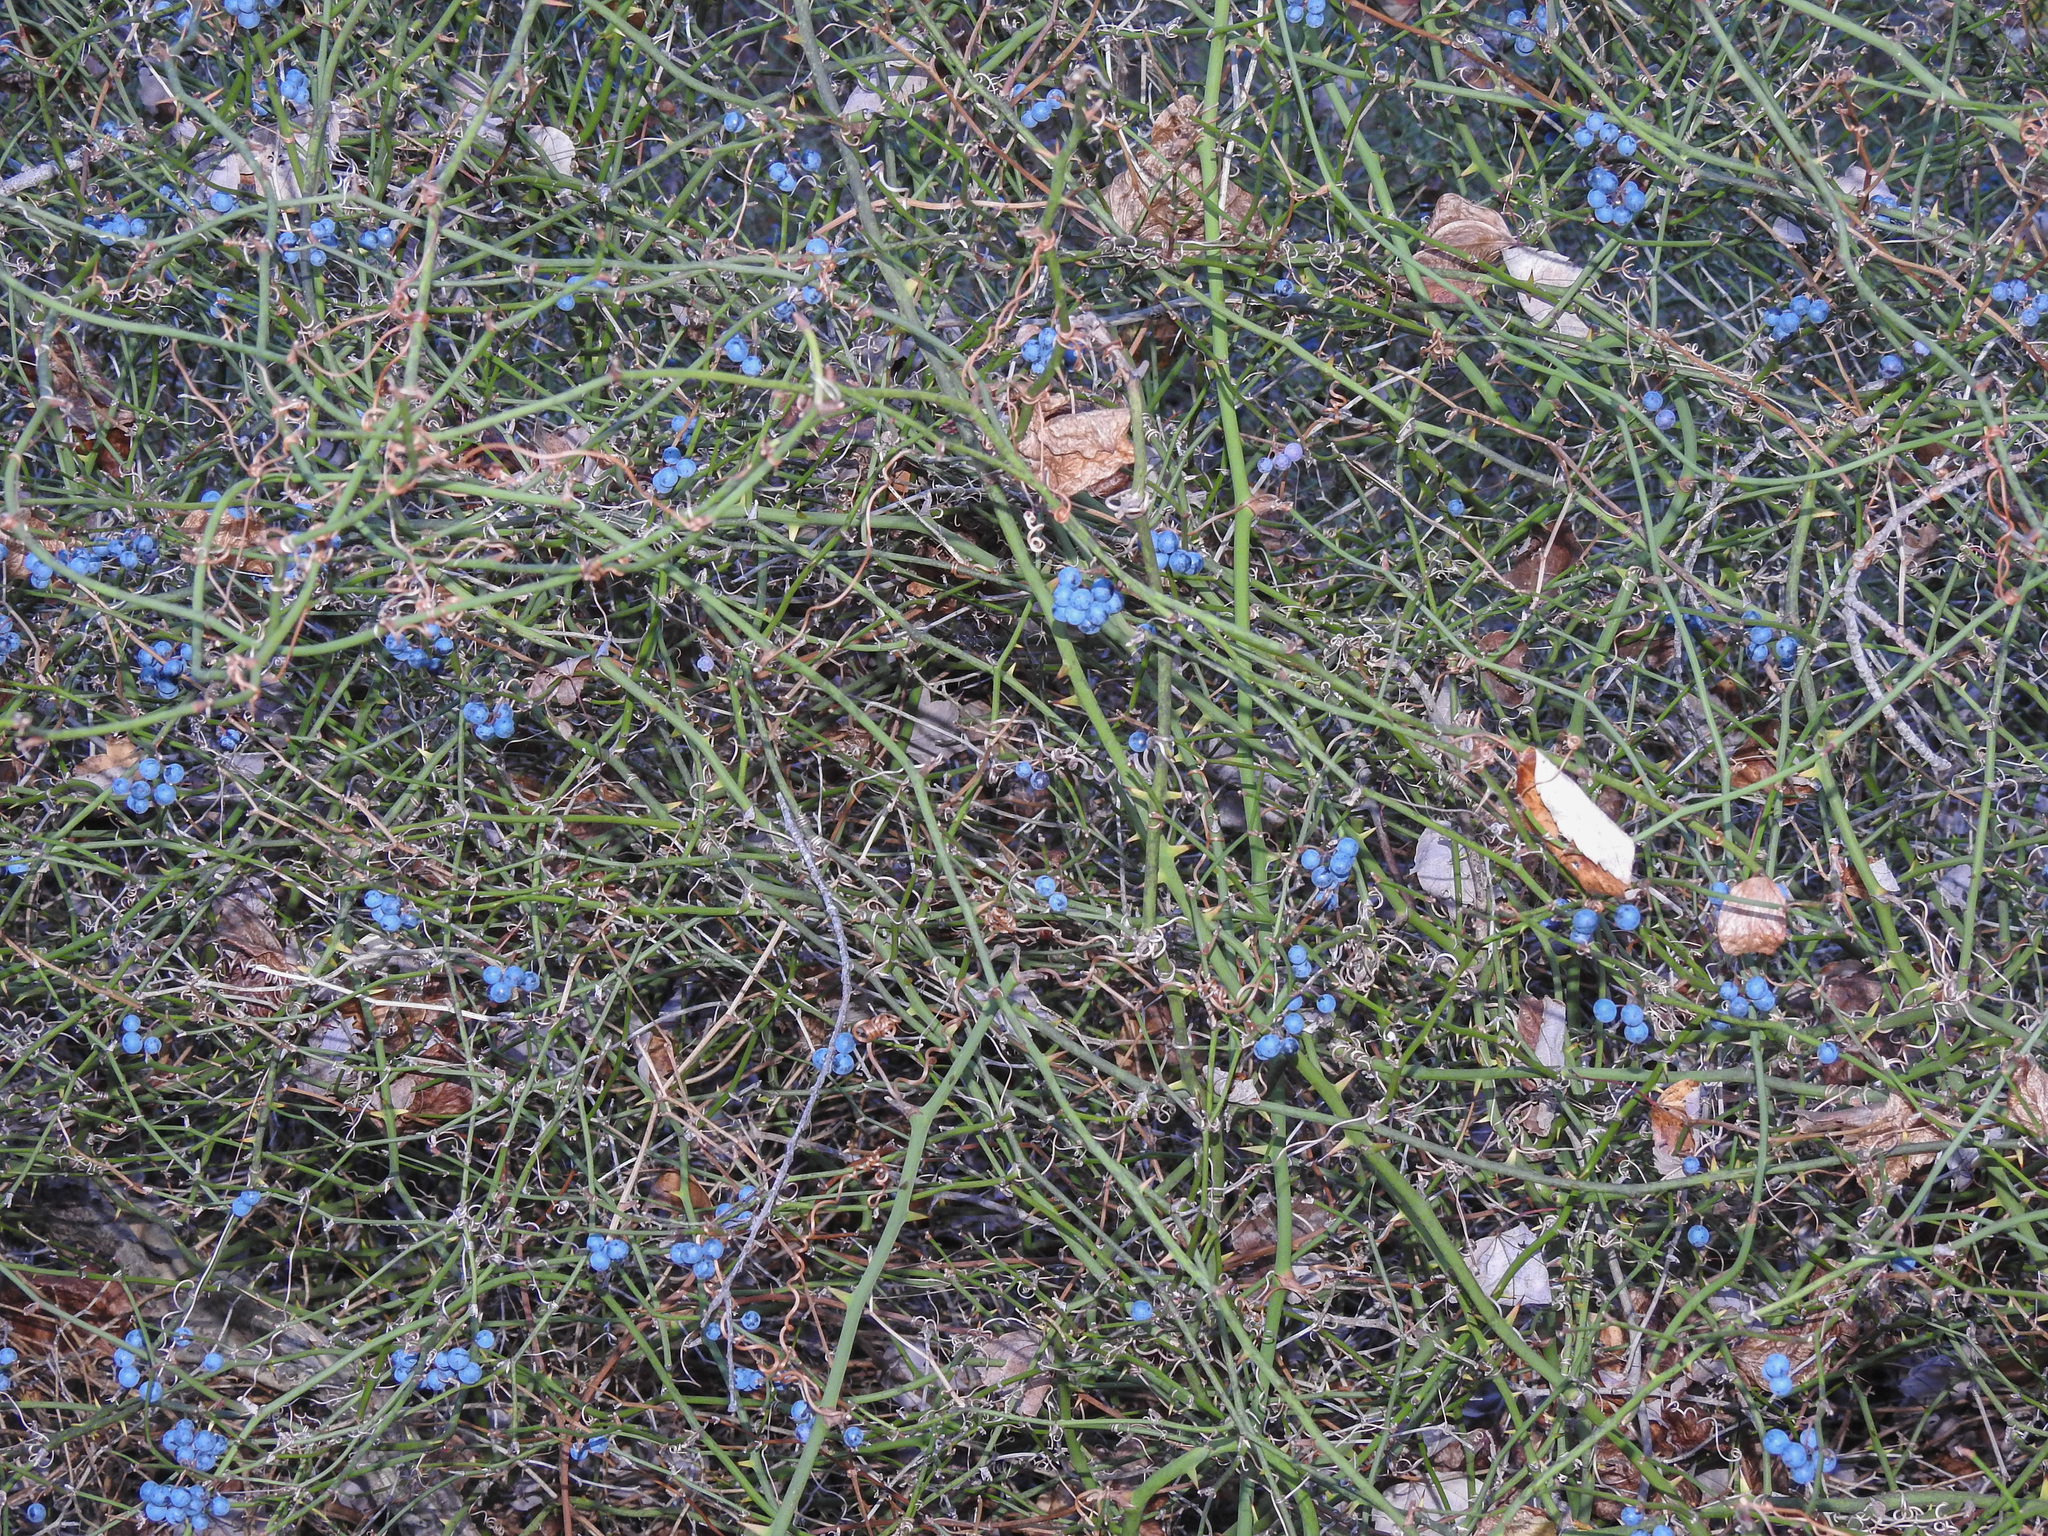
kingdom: Plantae
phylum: Tracheophyta
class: Liliopsida
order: Liliales
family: Smilacaceae
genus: Smilax
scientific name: Smilax rotundifolia
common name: Bullbriar
